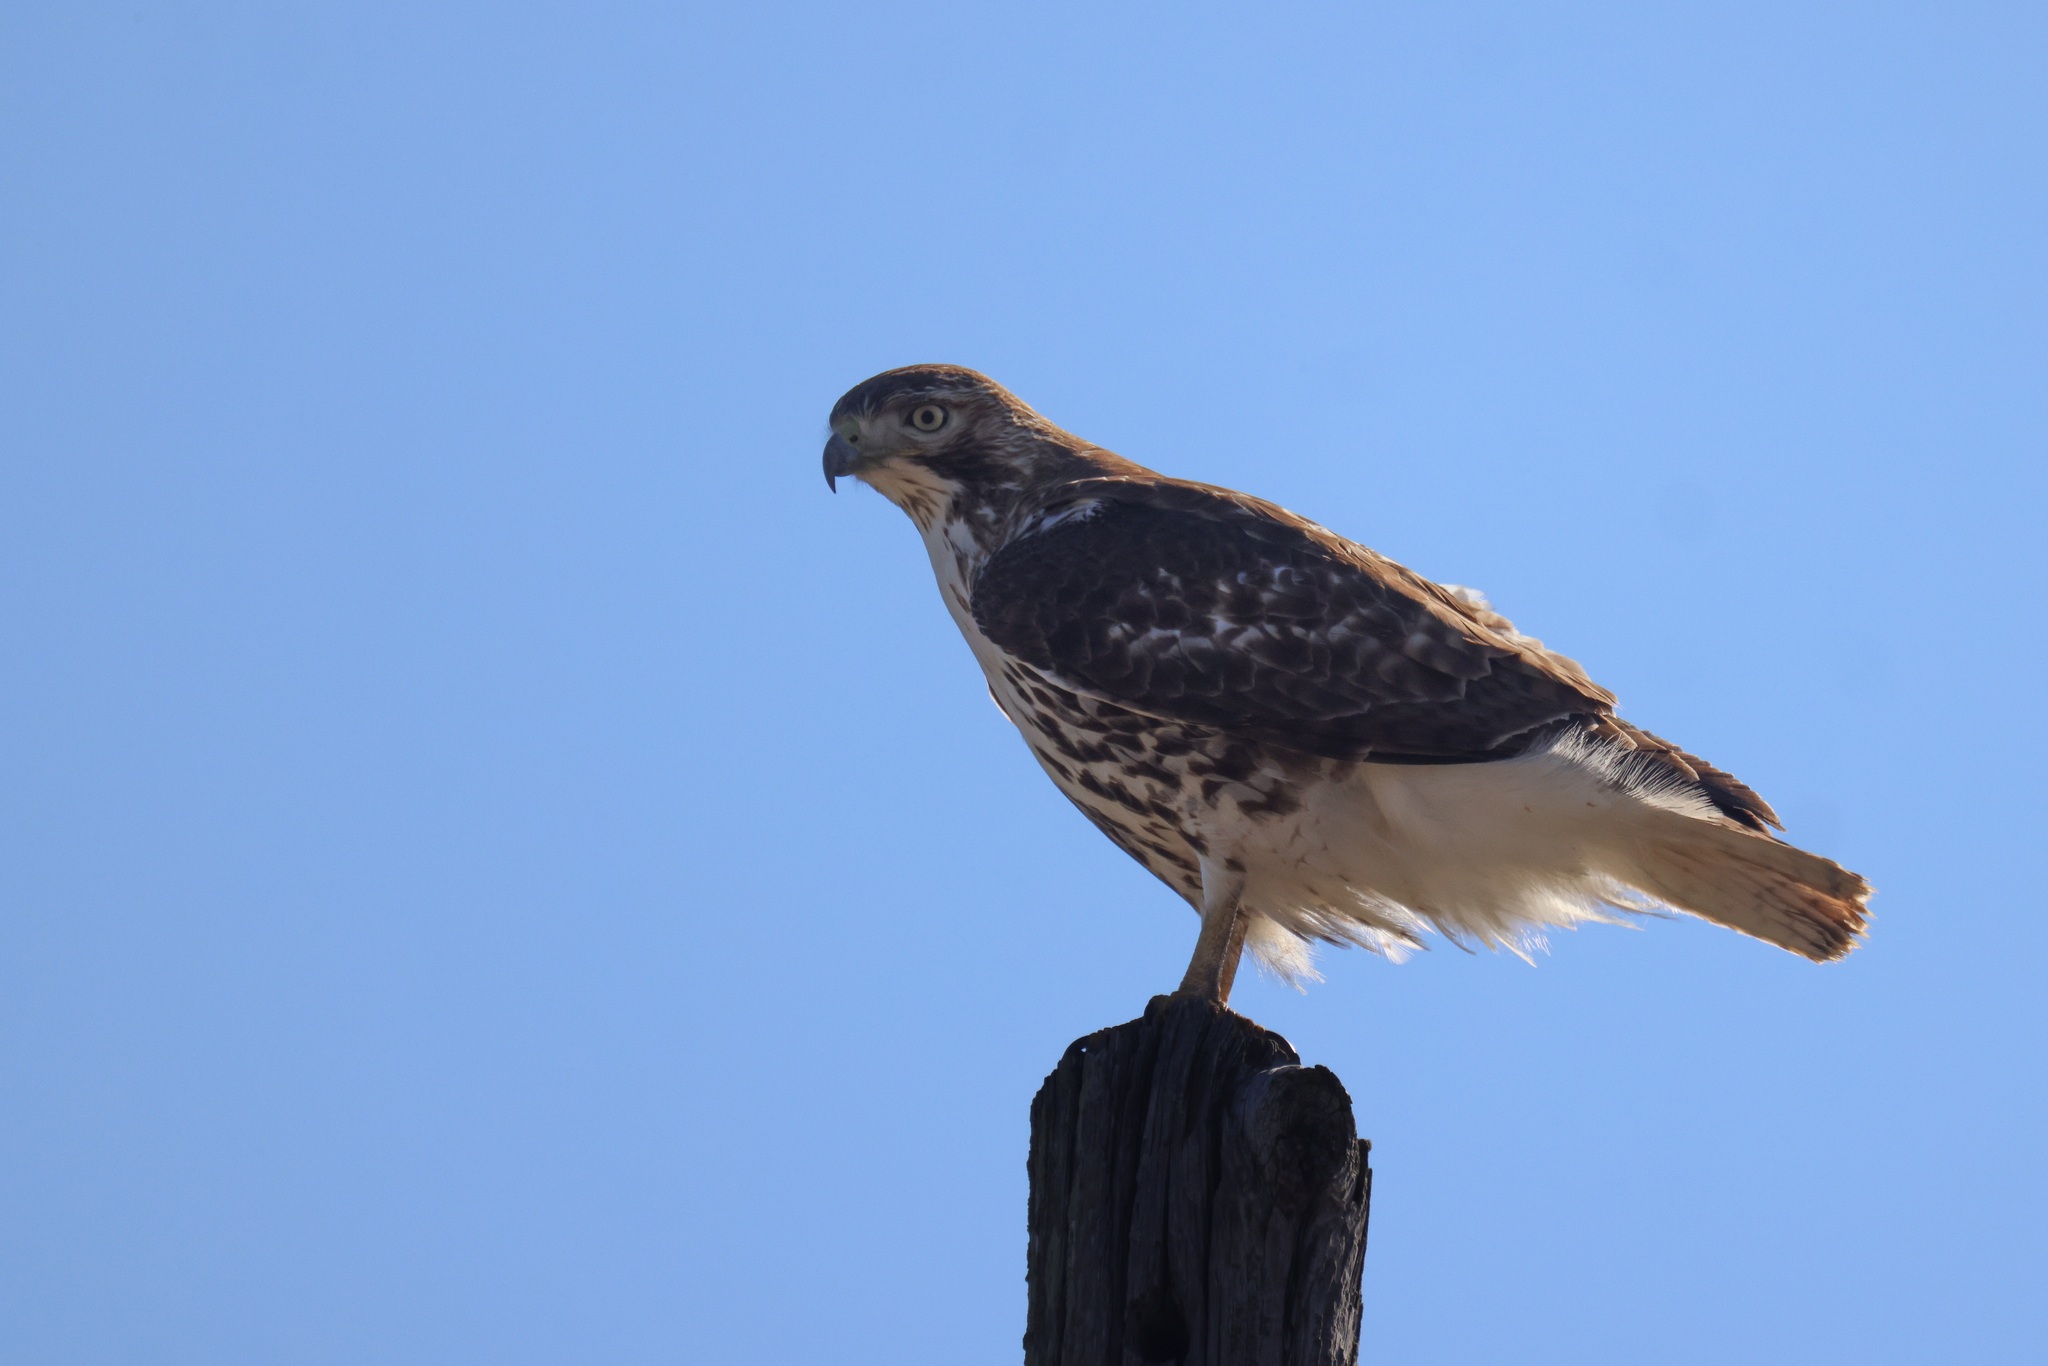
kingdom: Animalia
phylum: Chordata
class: Aves
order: Accipitriformes
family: Accipitridae
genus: Buteo
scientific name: Buteo jamaicensis
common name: Red-tailed hawk
